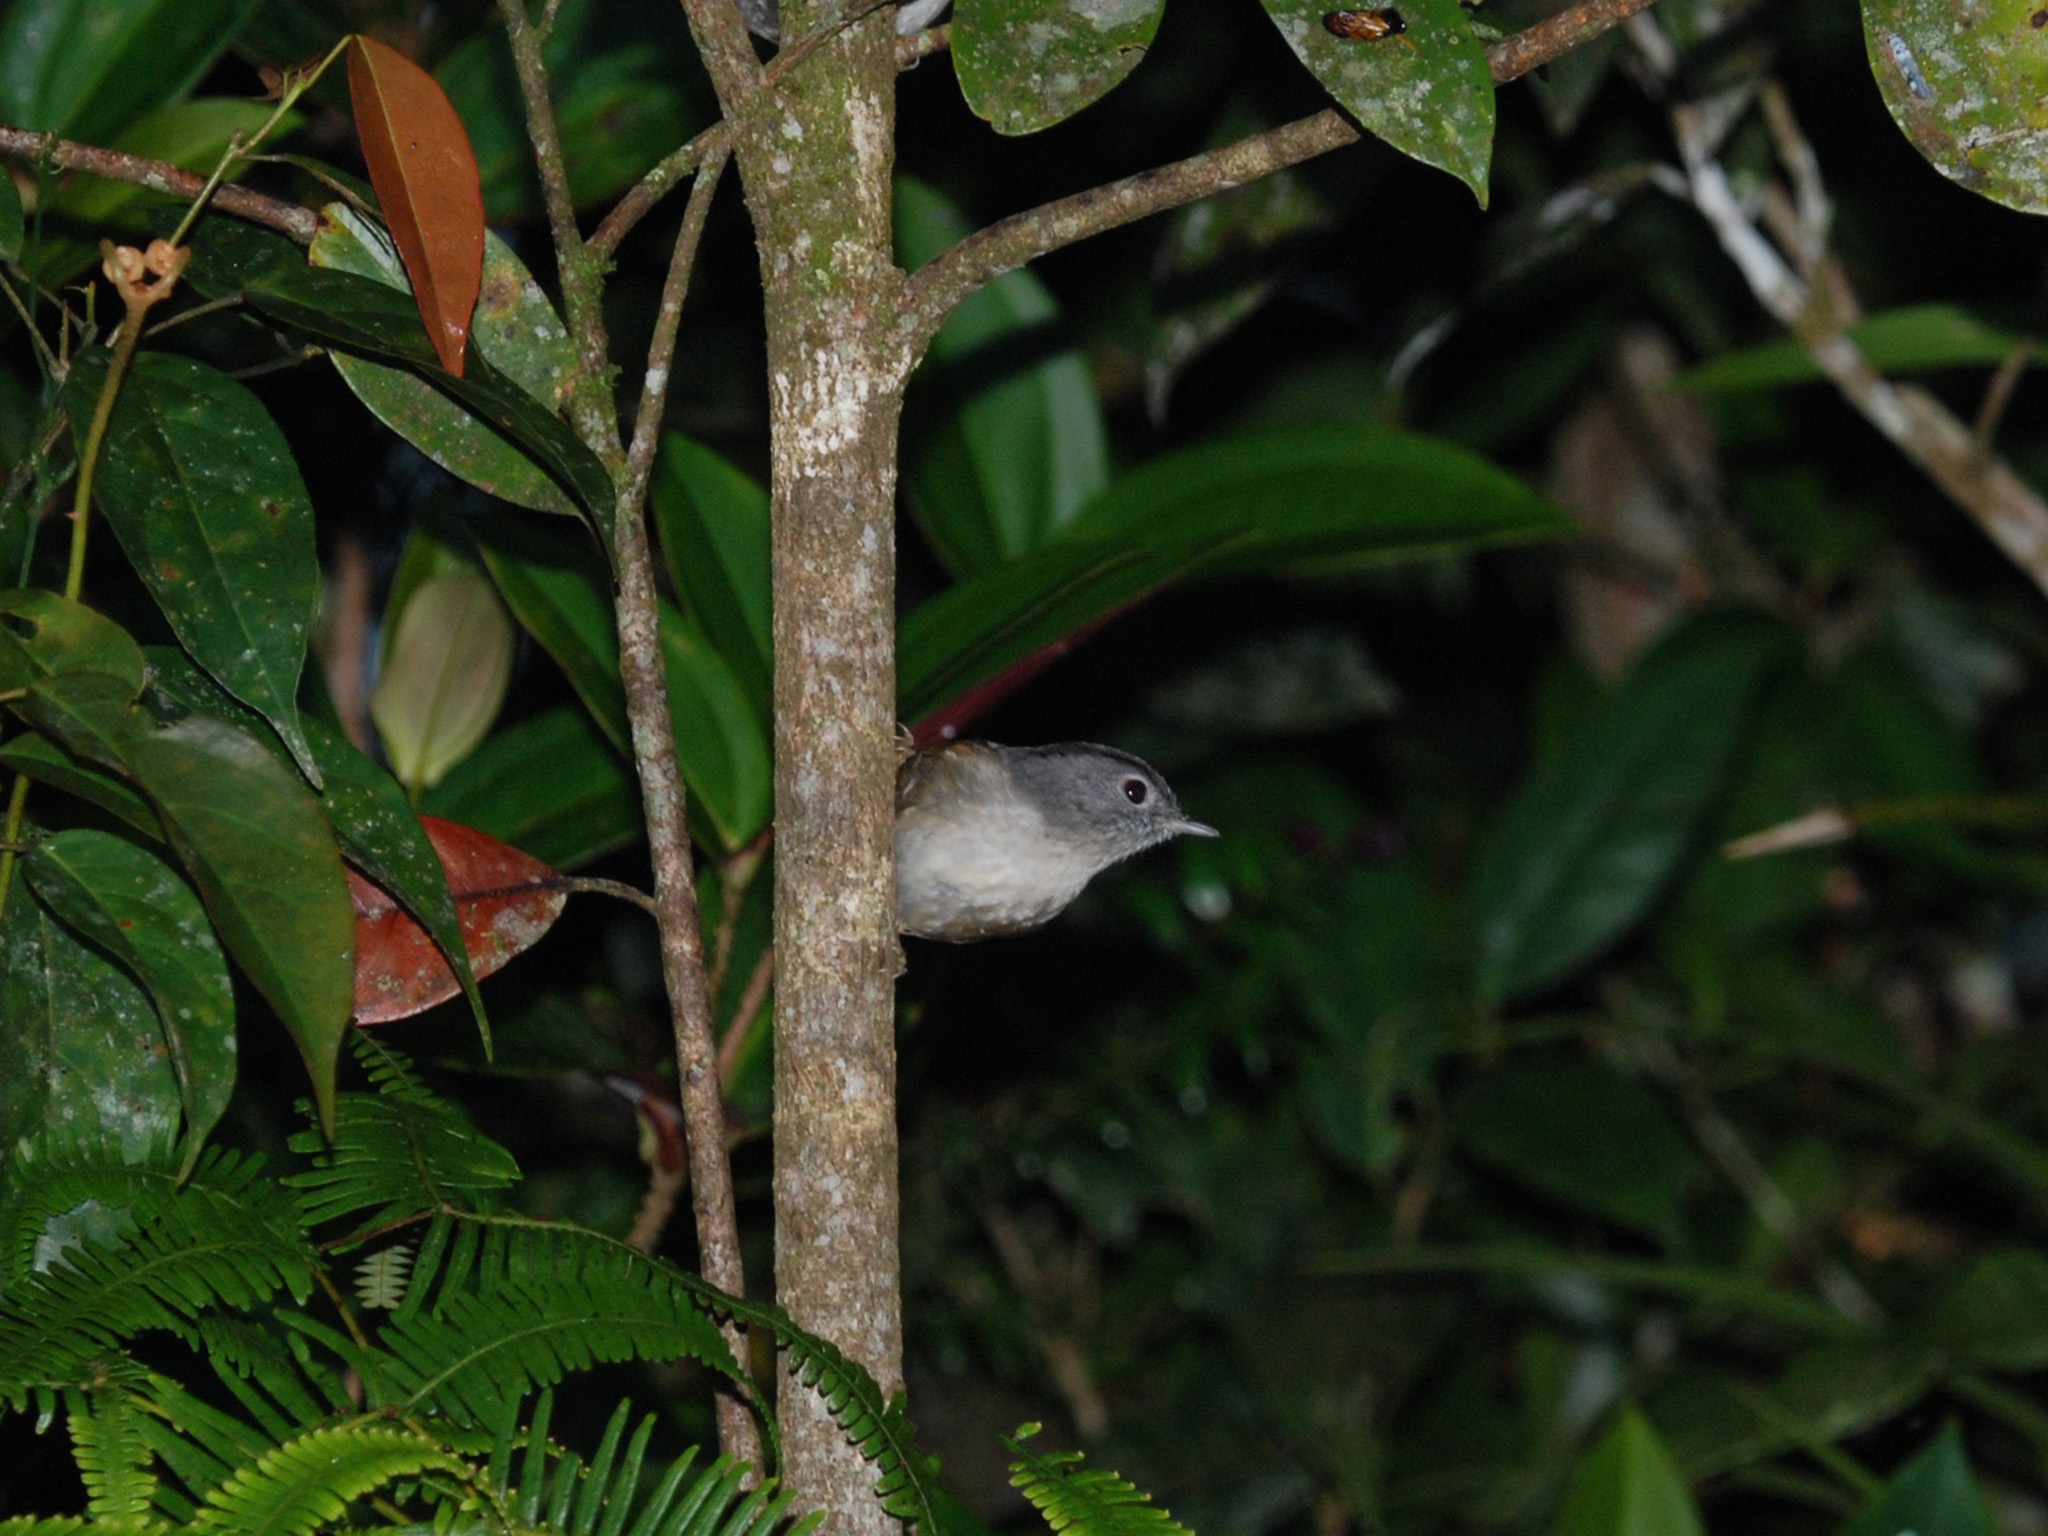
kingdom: Animalia
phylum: Chordata
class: Aves
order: Passeriformes
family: Pellorneidae
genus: Alcippe
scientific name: Alcippe peracensis
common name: Mountain fulvetta
